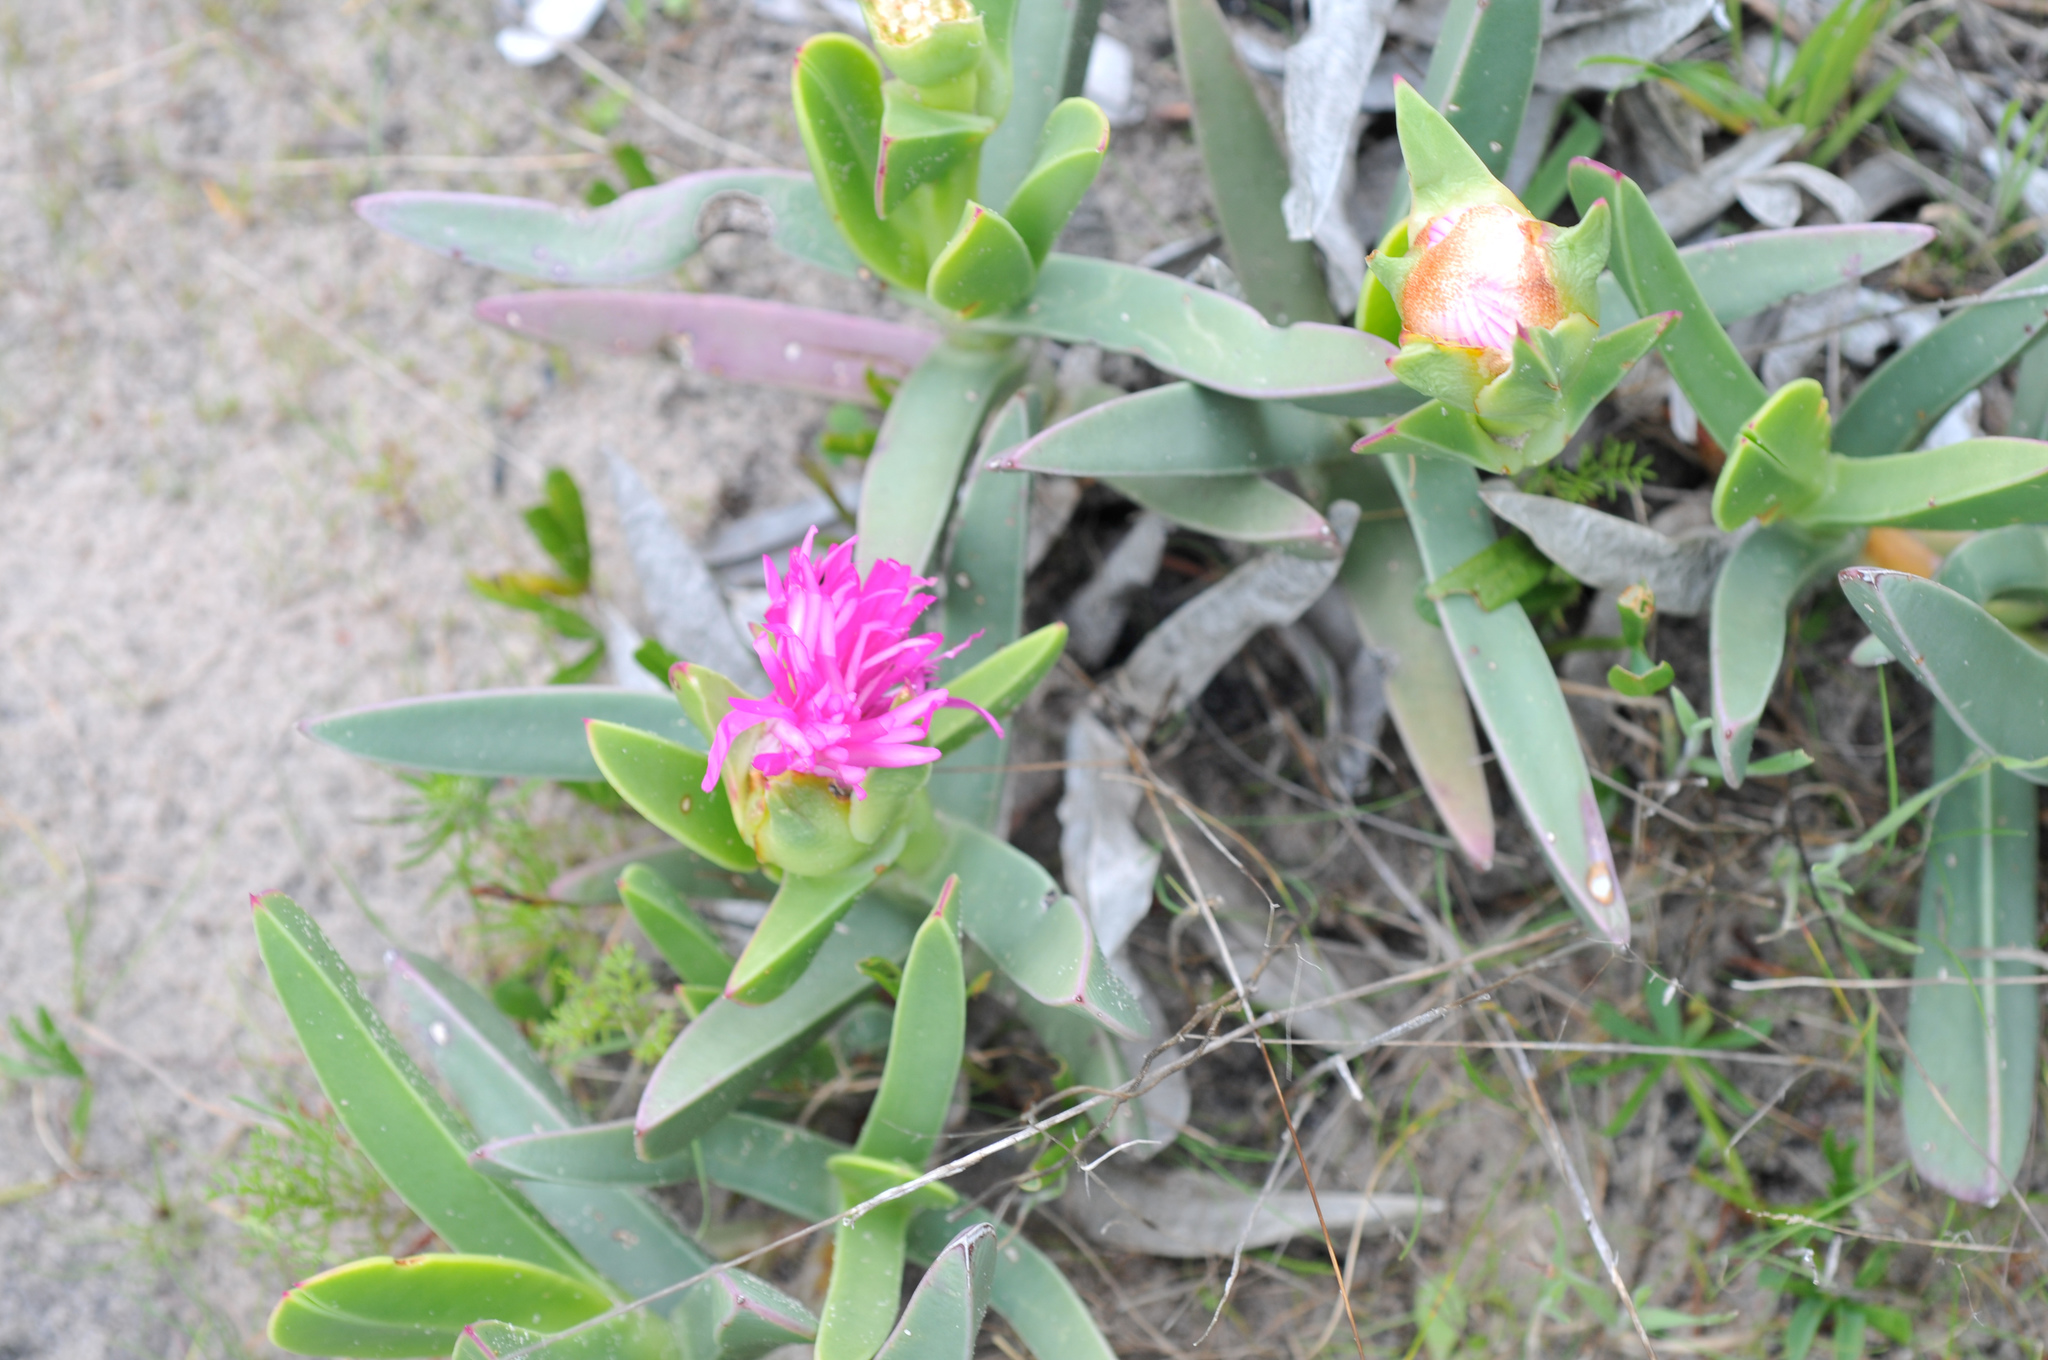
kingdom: Plantae
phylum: Tracheophyta
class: Magnoliopsida
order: Caryophyllales
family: Aizoaceae
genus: Carpobrotus
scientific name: Carpobrotus quadrifidus
